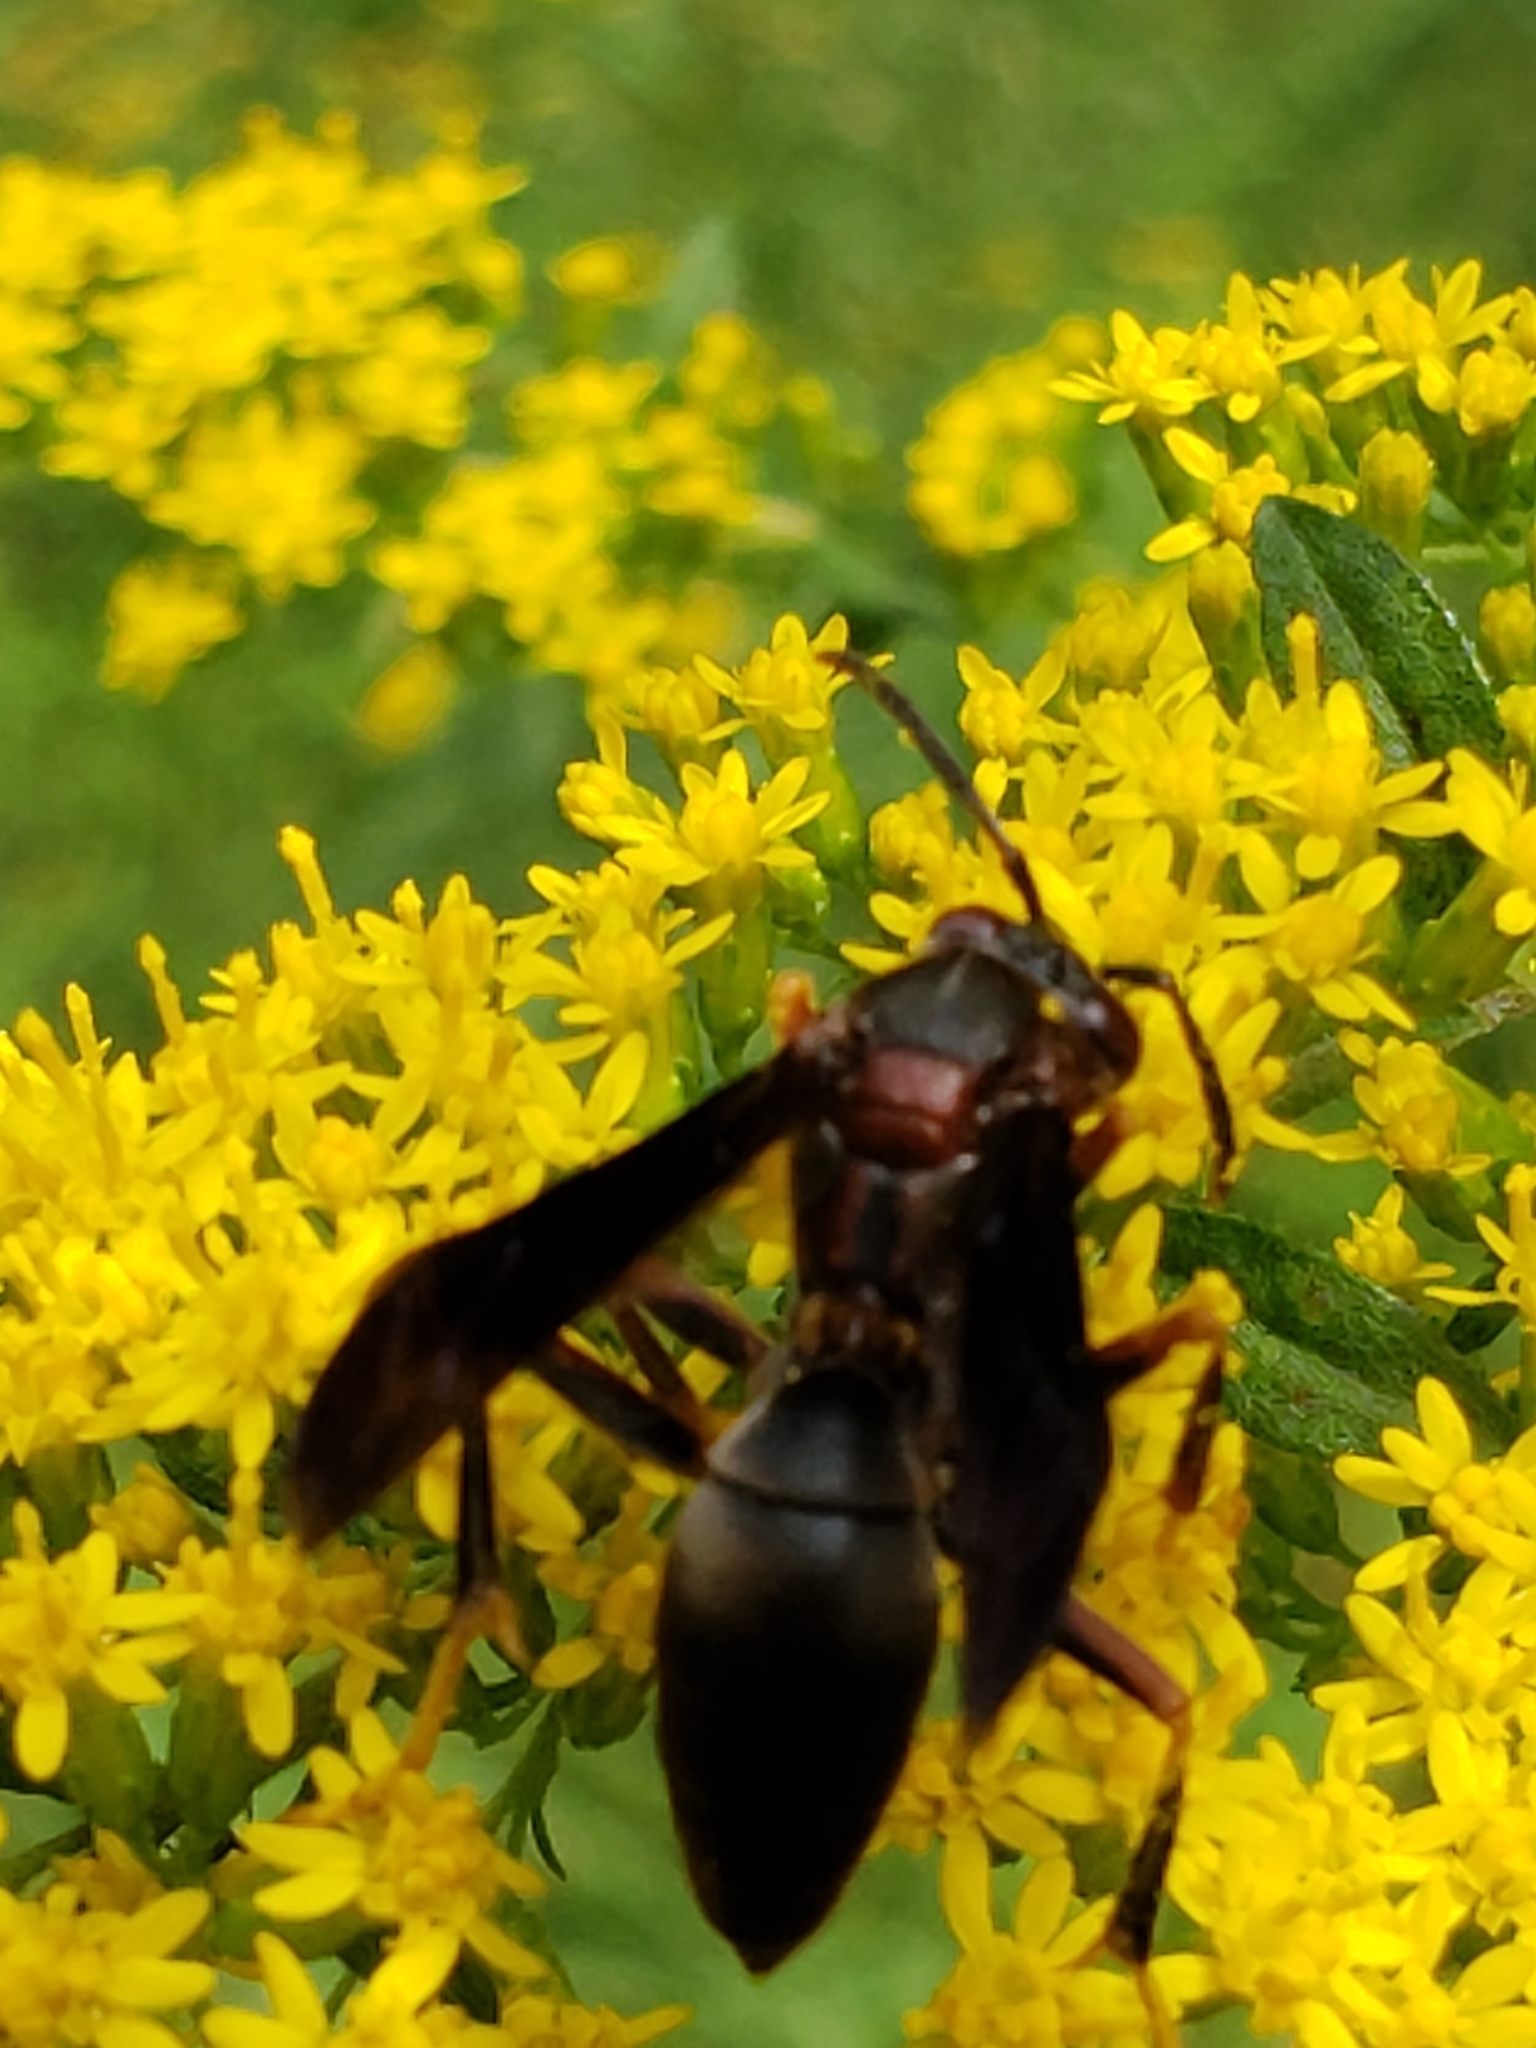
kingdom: Animalia
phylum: Arthropoda
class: Insecta
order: Hymenoptera
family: Eumenidae
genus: Polistes
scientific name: Polistes metricus
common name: Metric paper wasp
